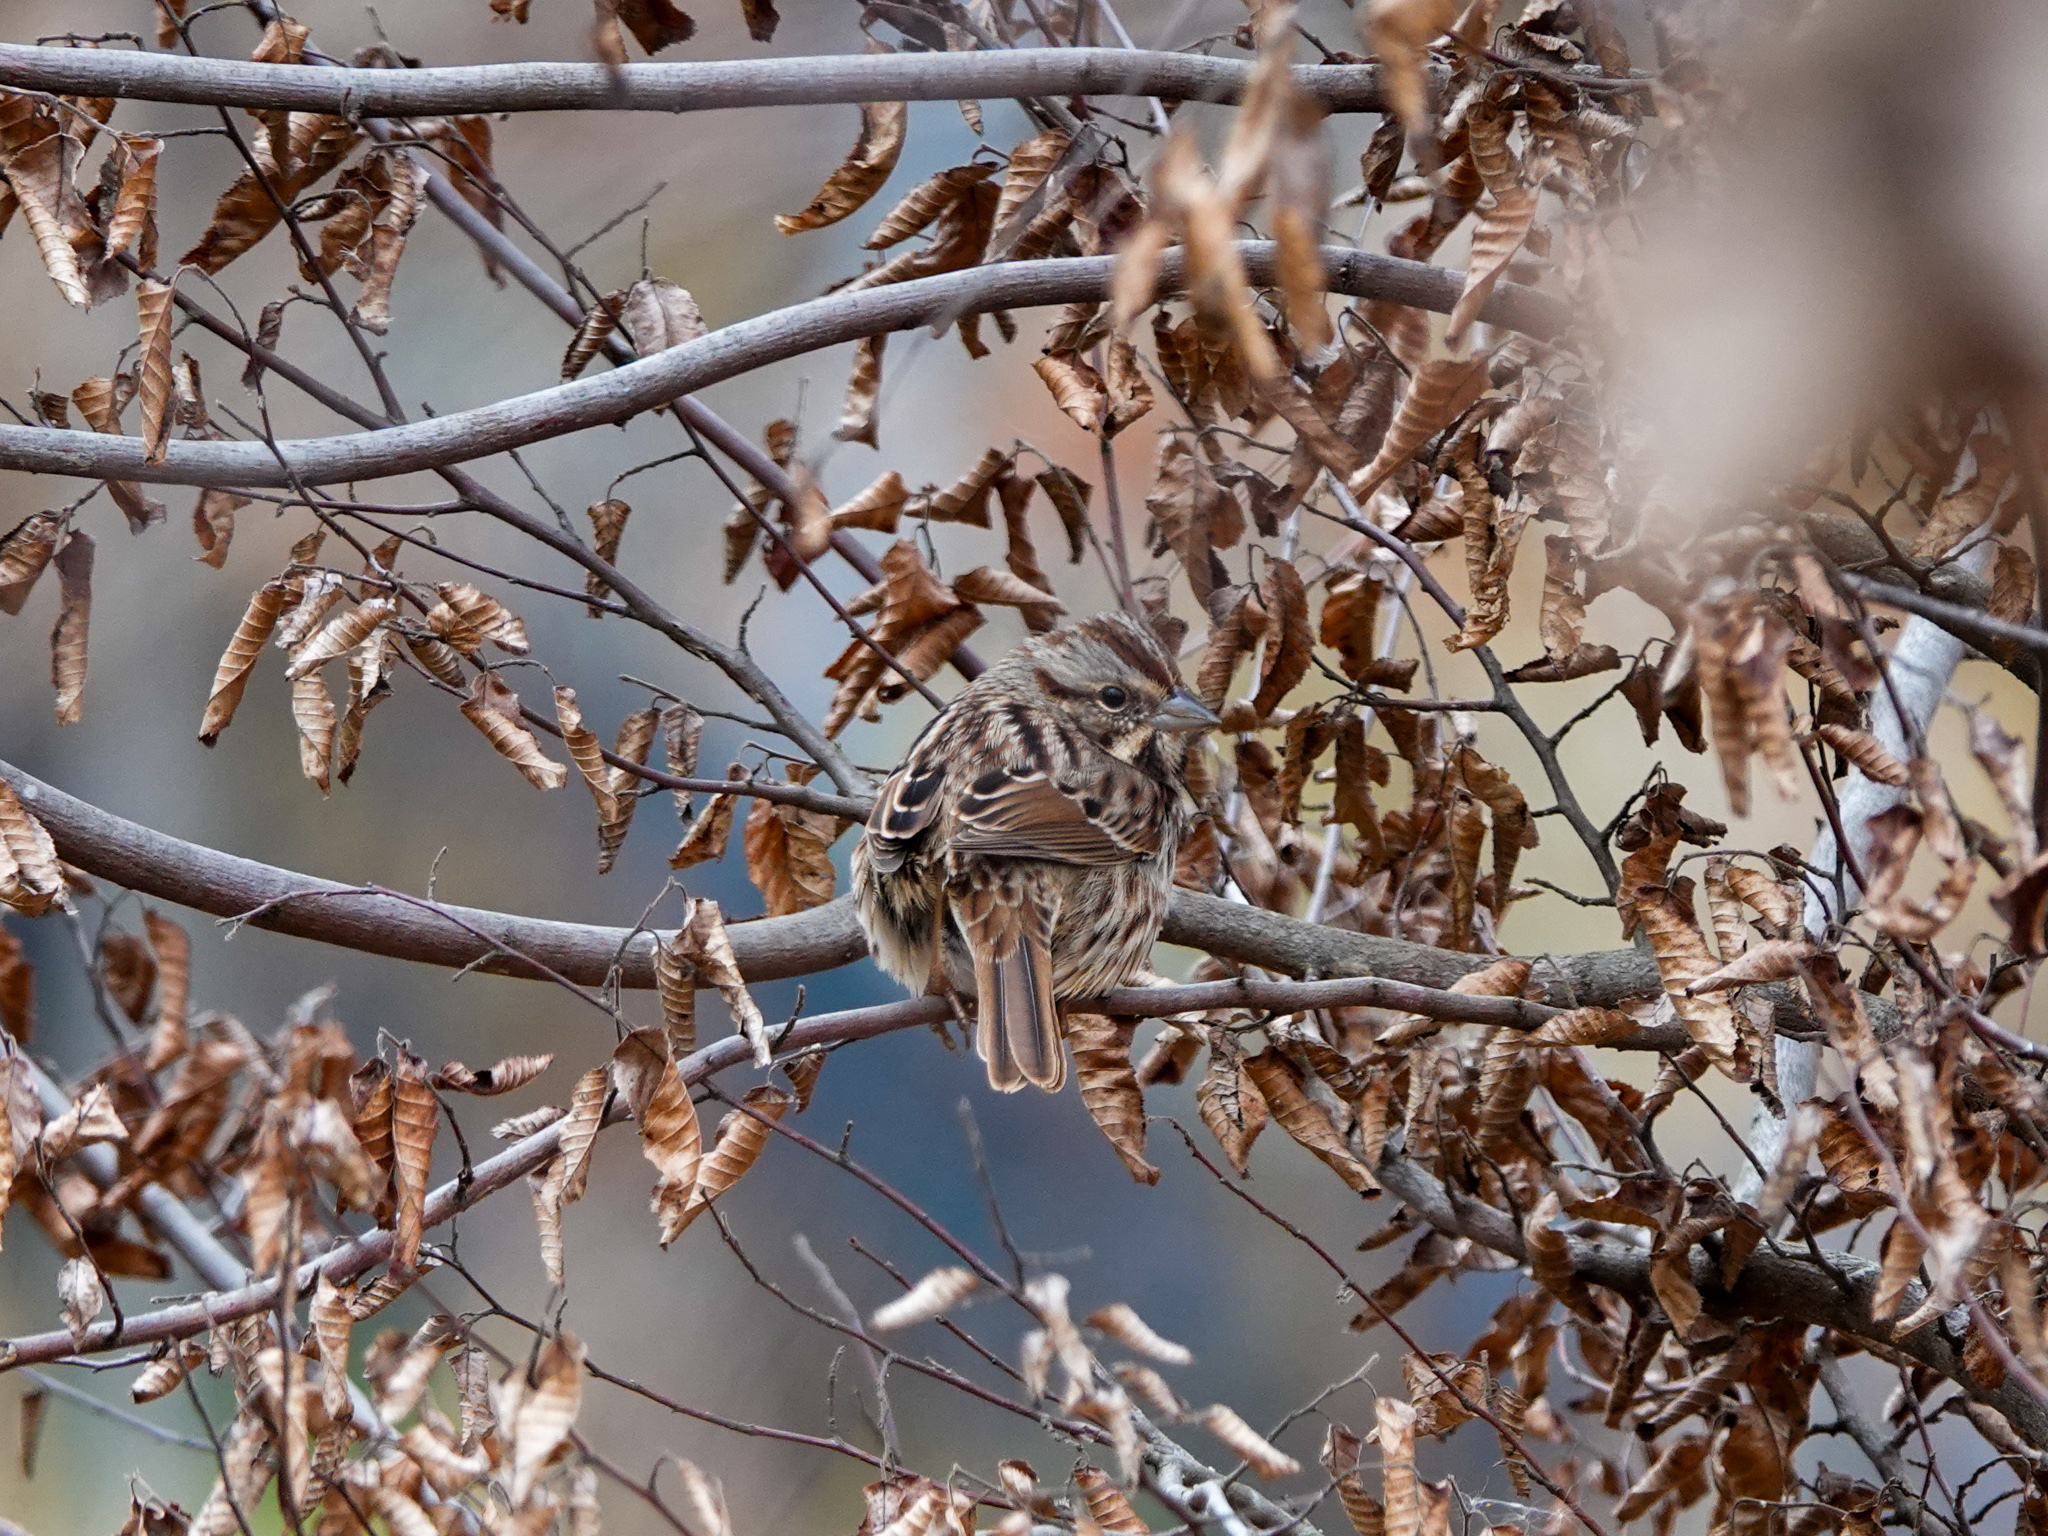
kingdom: Animalia
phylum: Chordata
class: Aves
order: Passeriformes
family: Passerellidae
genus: Melospiza
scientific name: Melospiza melodia
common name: Song sparrow
